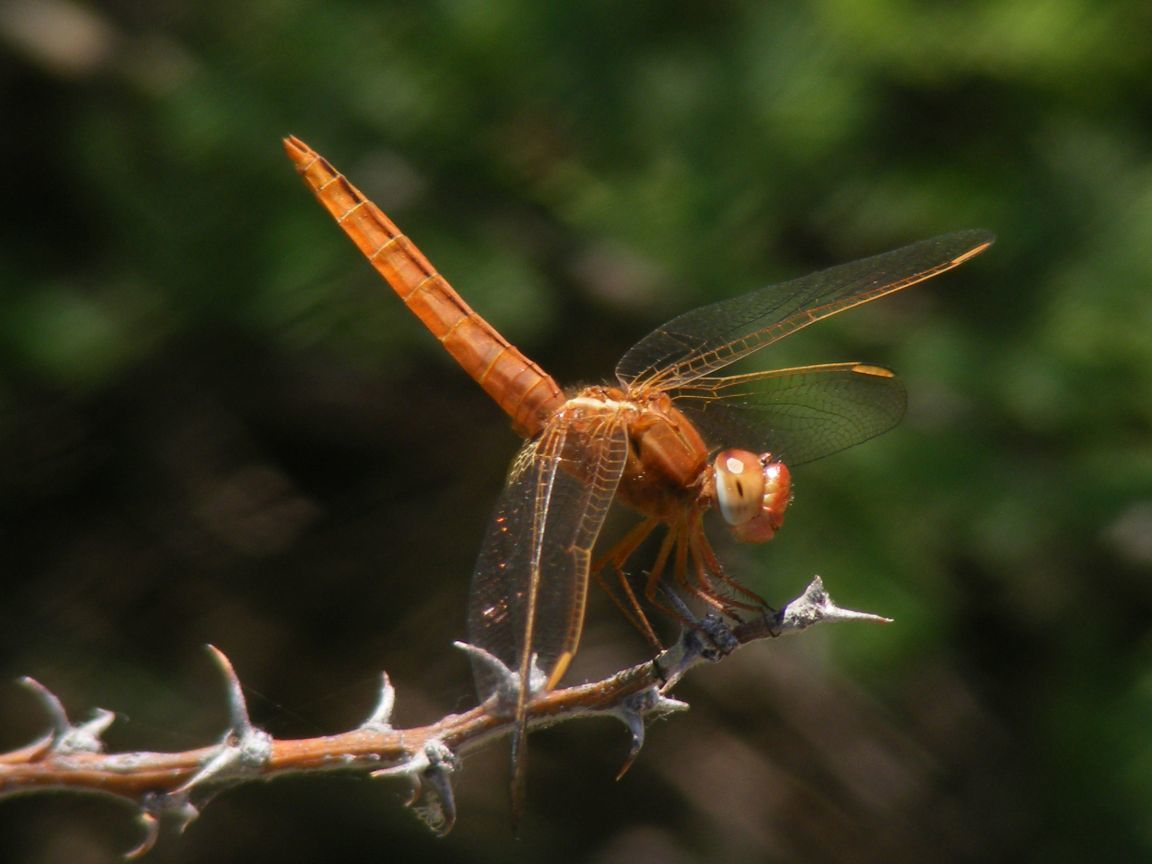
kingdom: Animalia
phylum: Arthropoda
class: Insecta
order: Odonata
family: Libellulidae
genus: Crocothemis
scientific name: Crocothemis erythraea
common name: Scarlet dragonfly
